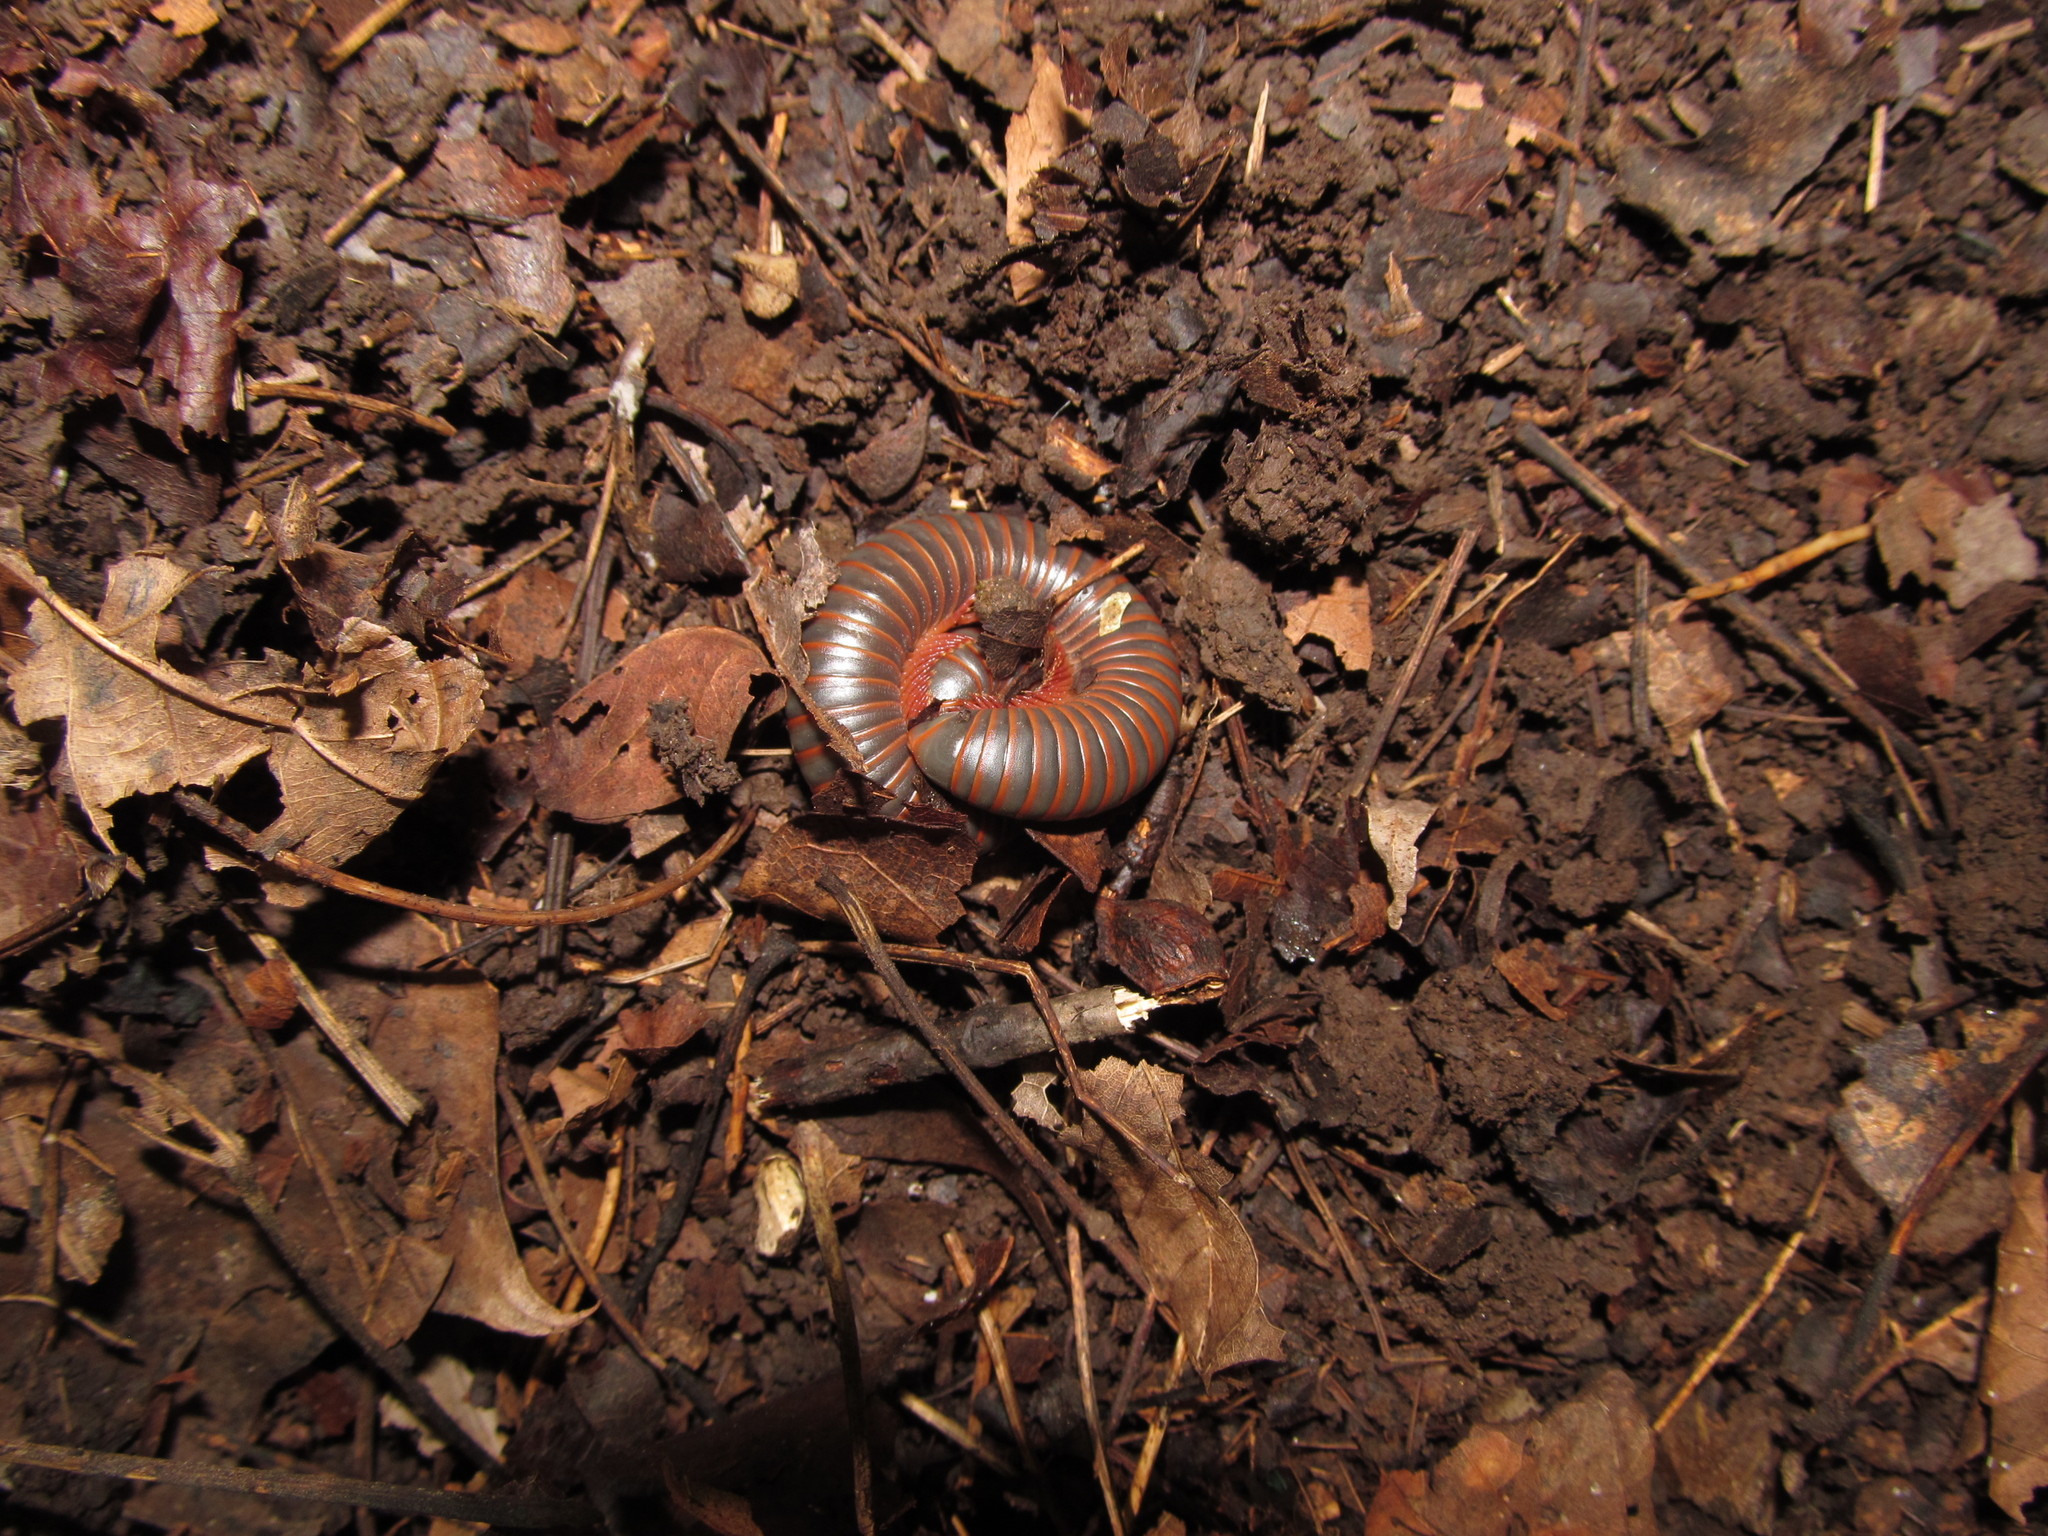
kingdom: Animalia
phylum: Arthropoda
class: Diplopoda
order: Spirobolida
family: Spirobolidae
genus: Narceus
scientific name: Narceus
